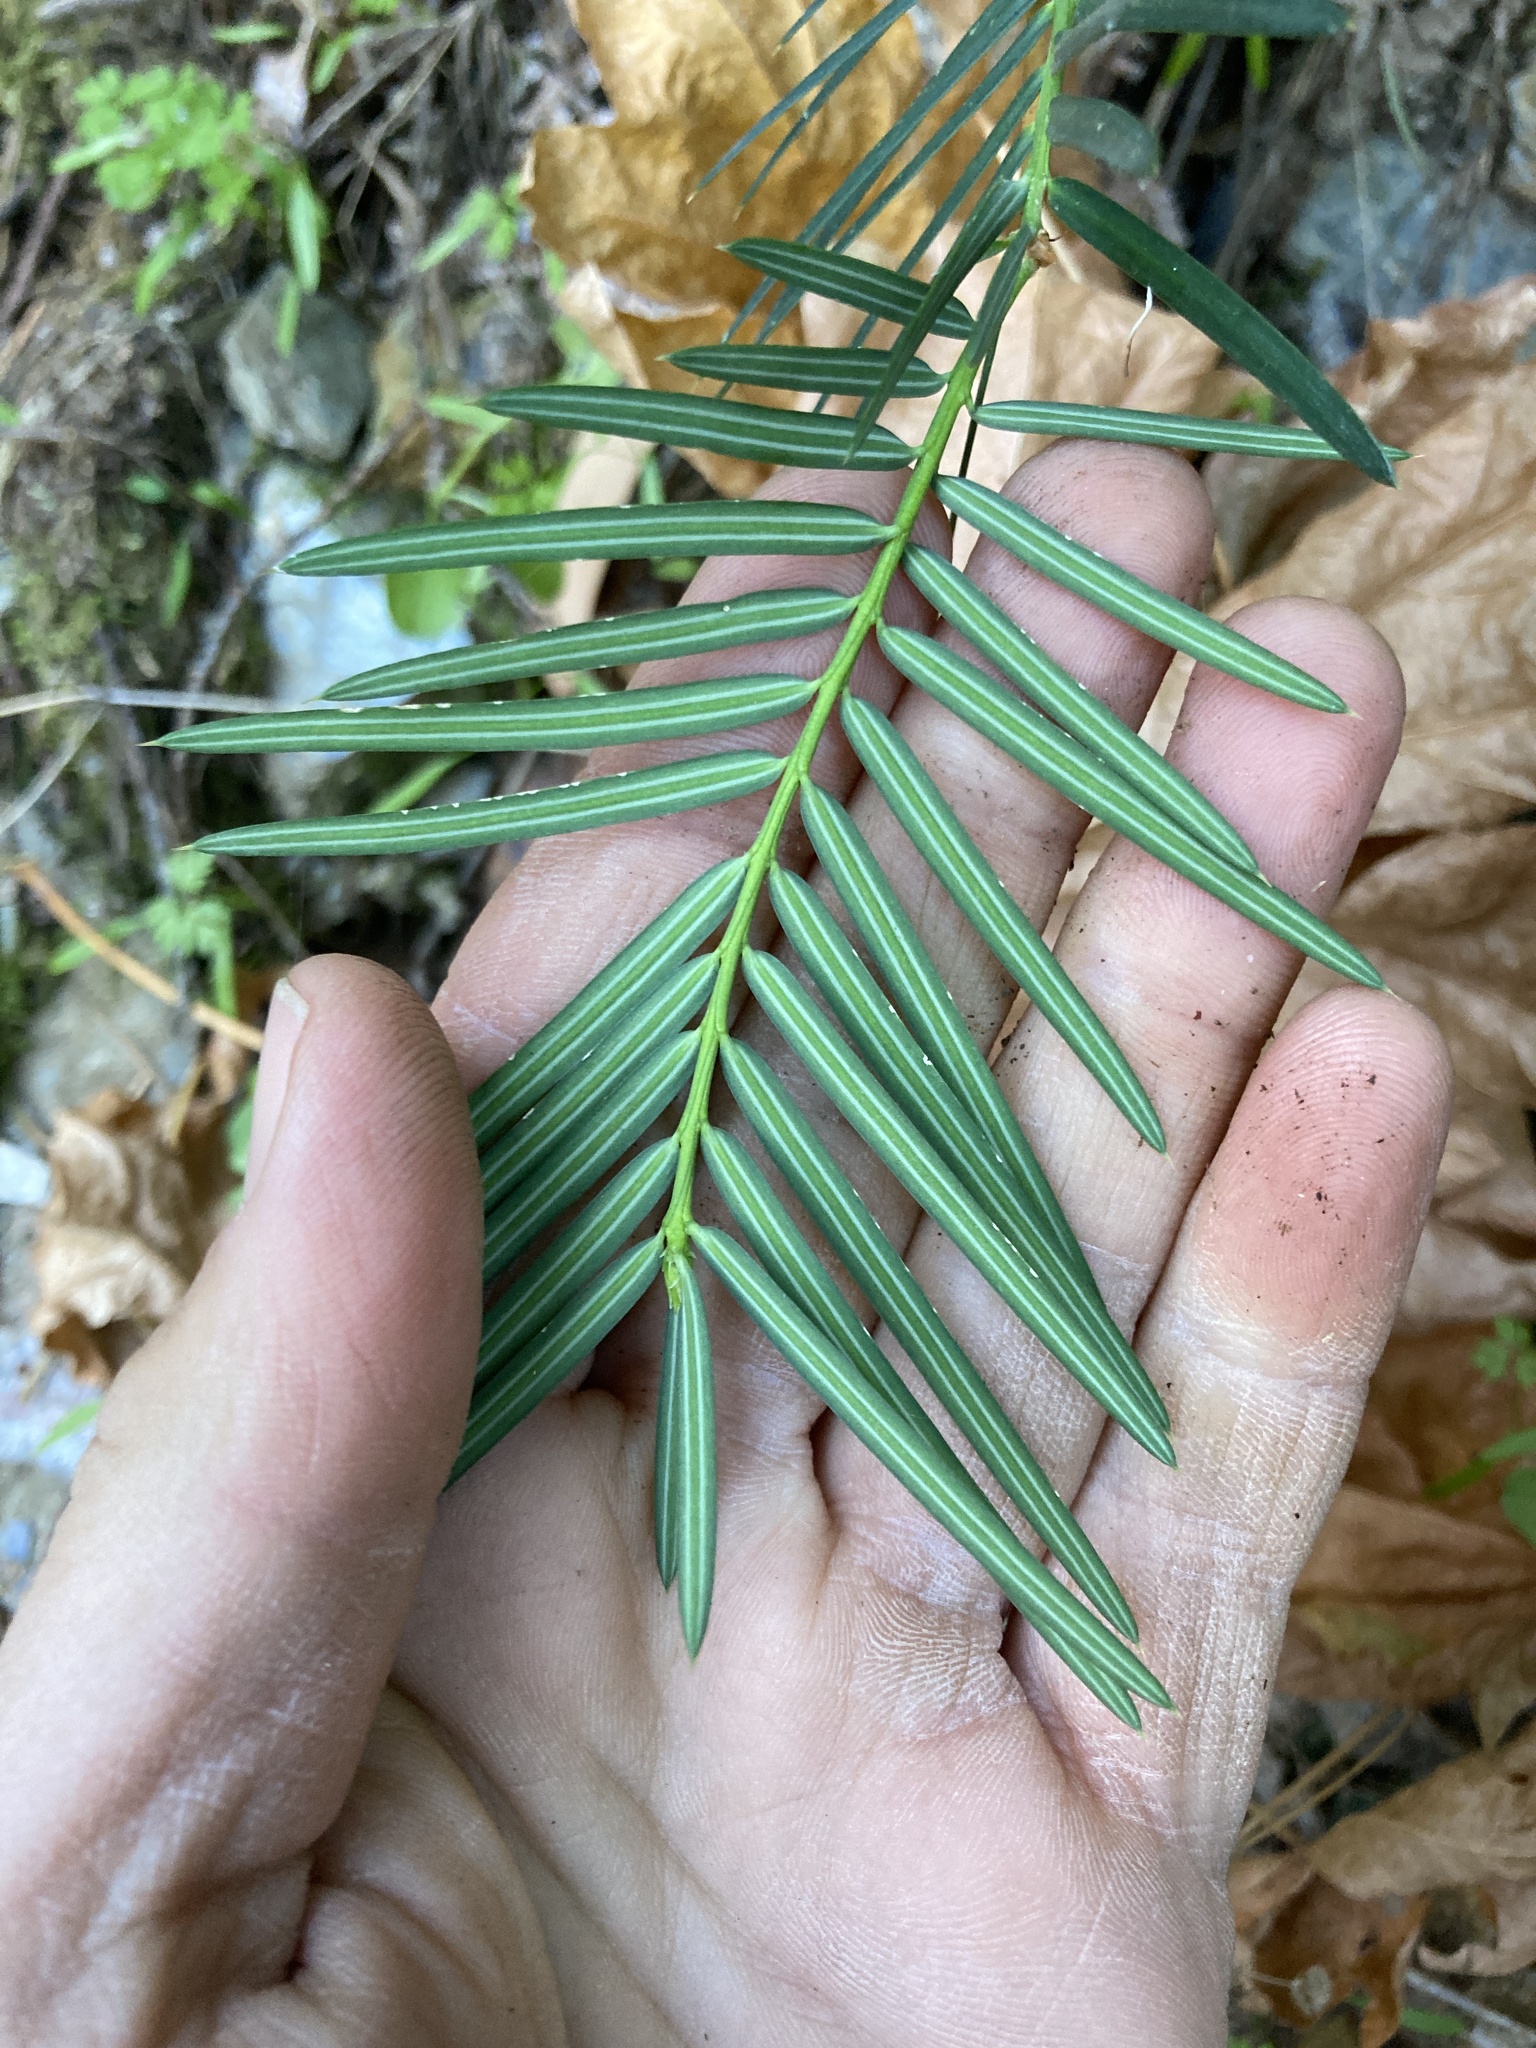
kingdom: Plantae
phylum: Tracheophyta
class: Pinopsida
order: Pinales
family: Taxaceae
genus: Torreya
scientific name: Torreya californica
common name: California torreya
